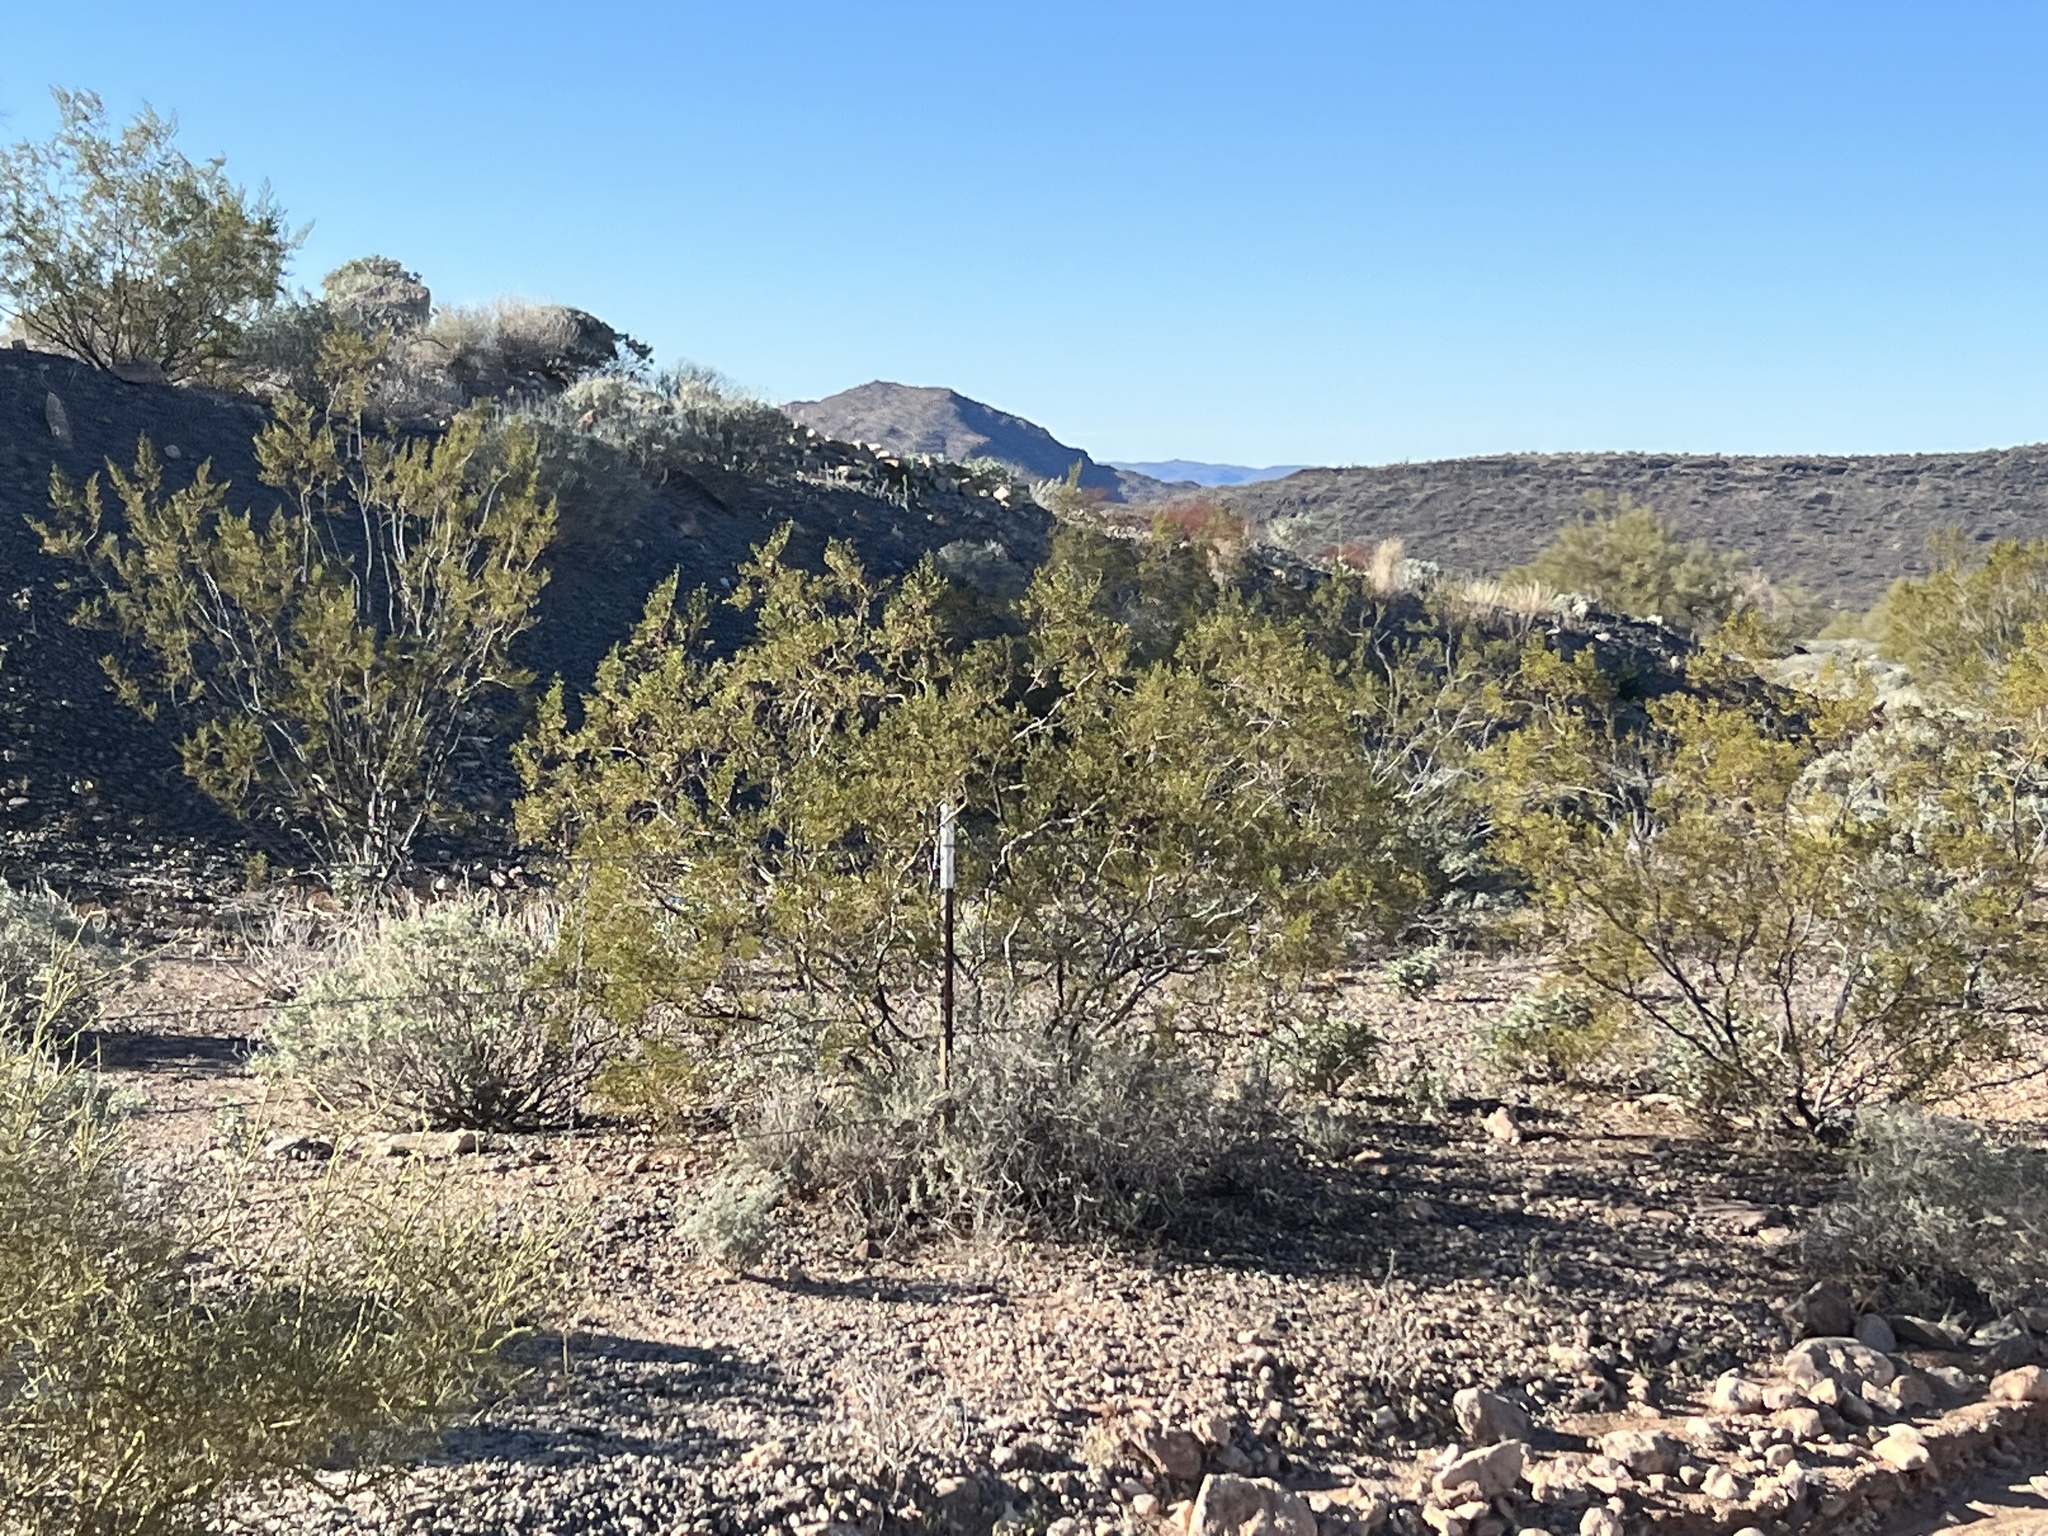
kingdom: Plantae
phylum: Tracheophyta
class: Magnoliopsida
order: Zygophyllales
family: Zygophyllaceae
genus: Larrea
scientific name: Larrea tridentata
